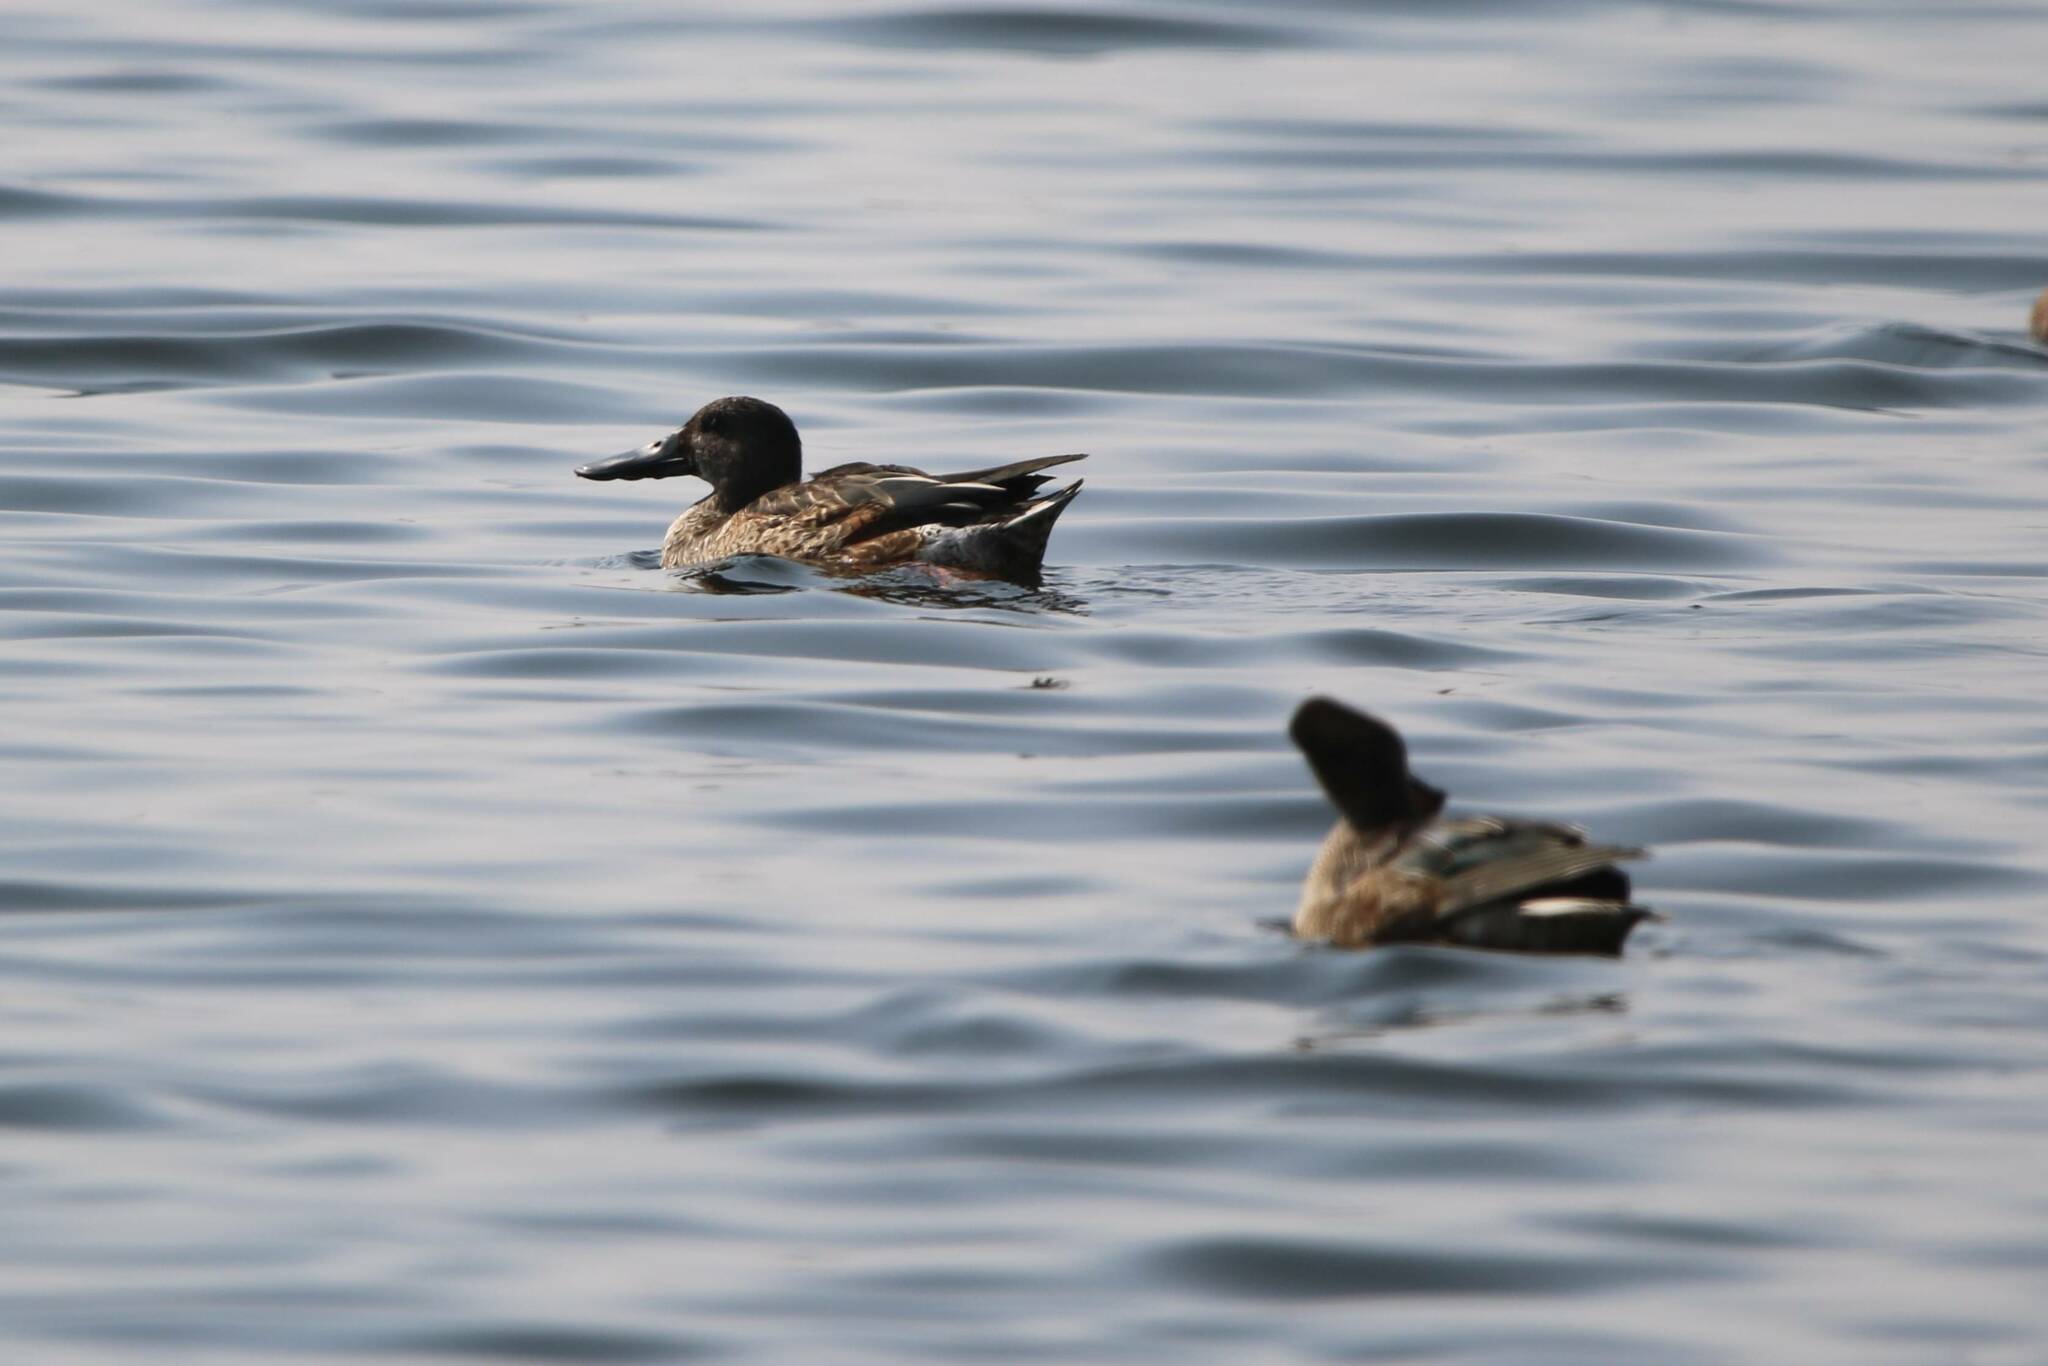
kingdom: Animalia
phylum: Chordata
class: Aves
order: Anseriformes
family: Anatidae
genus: Spatula
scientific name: Spatula clypeata
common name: Northern shoveler
